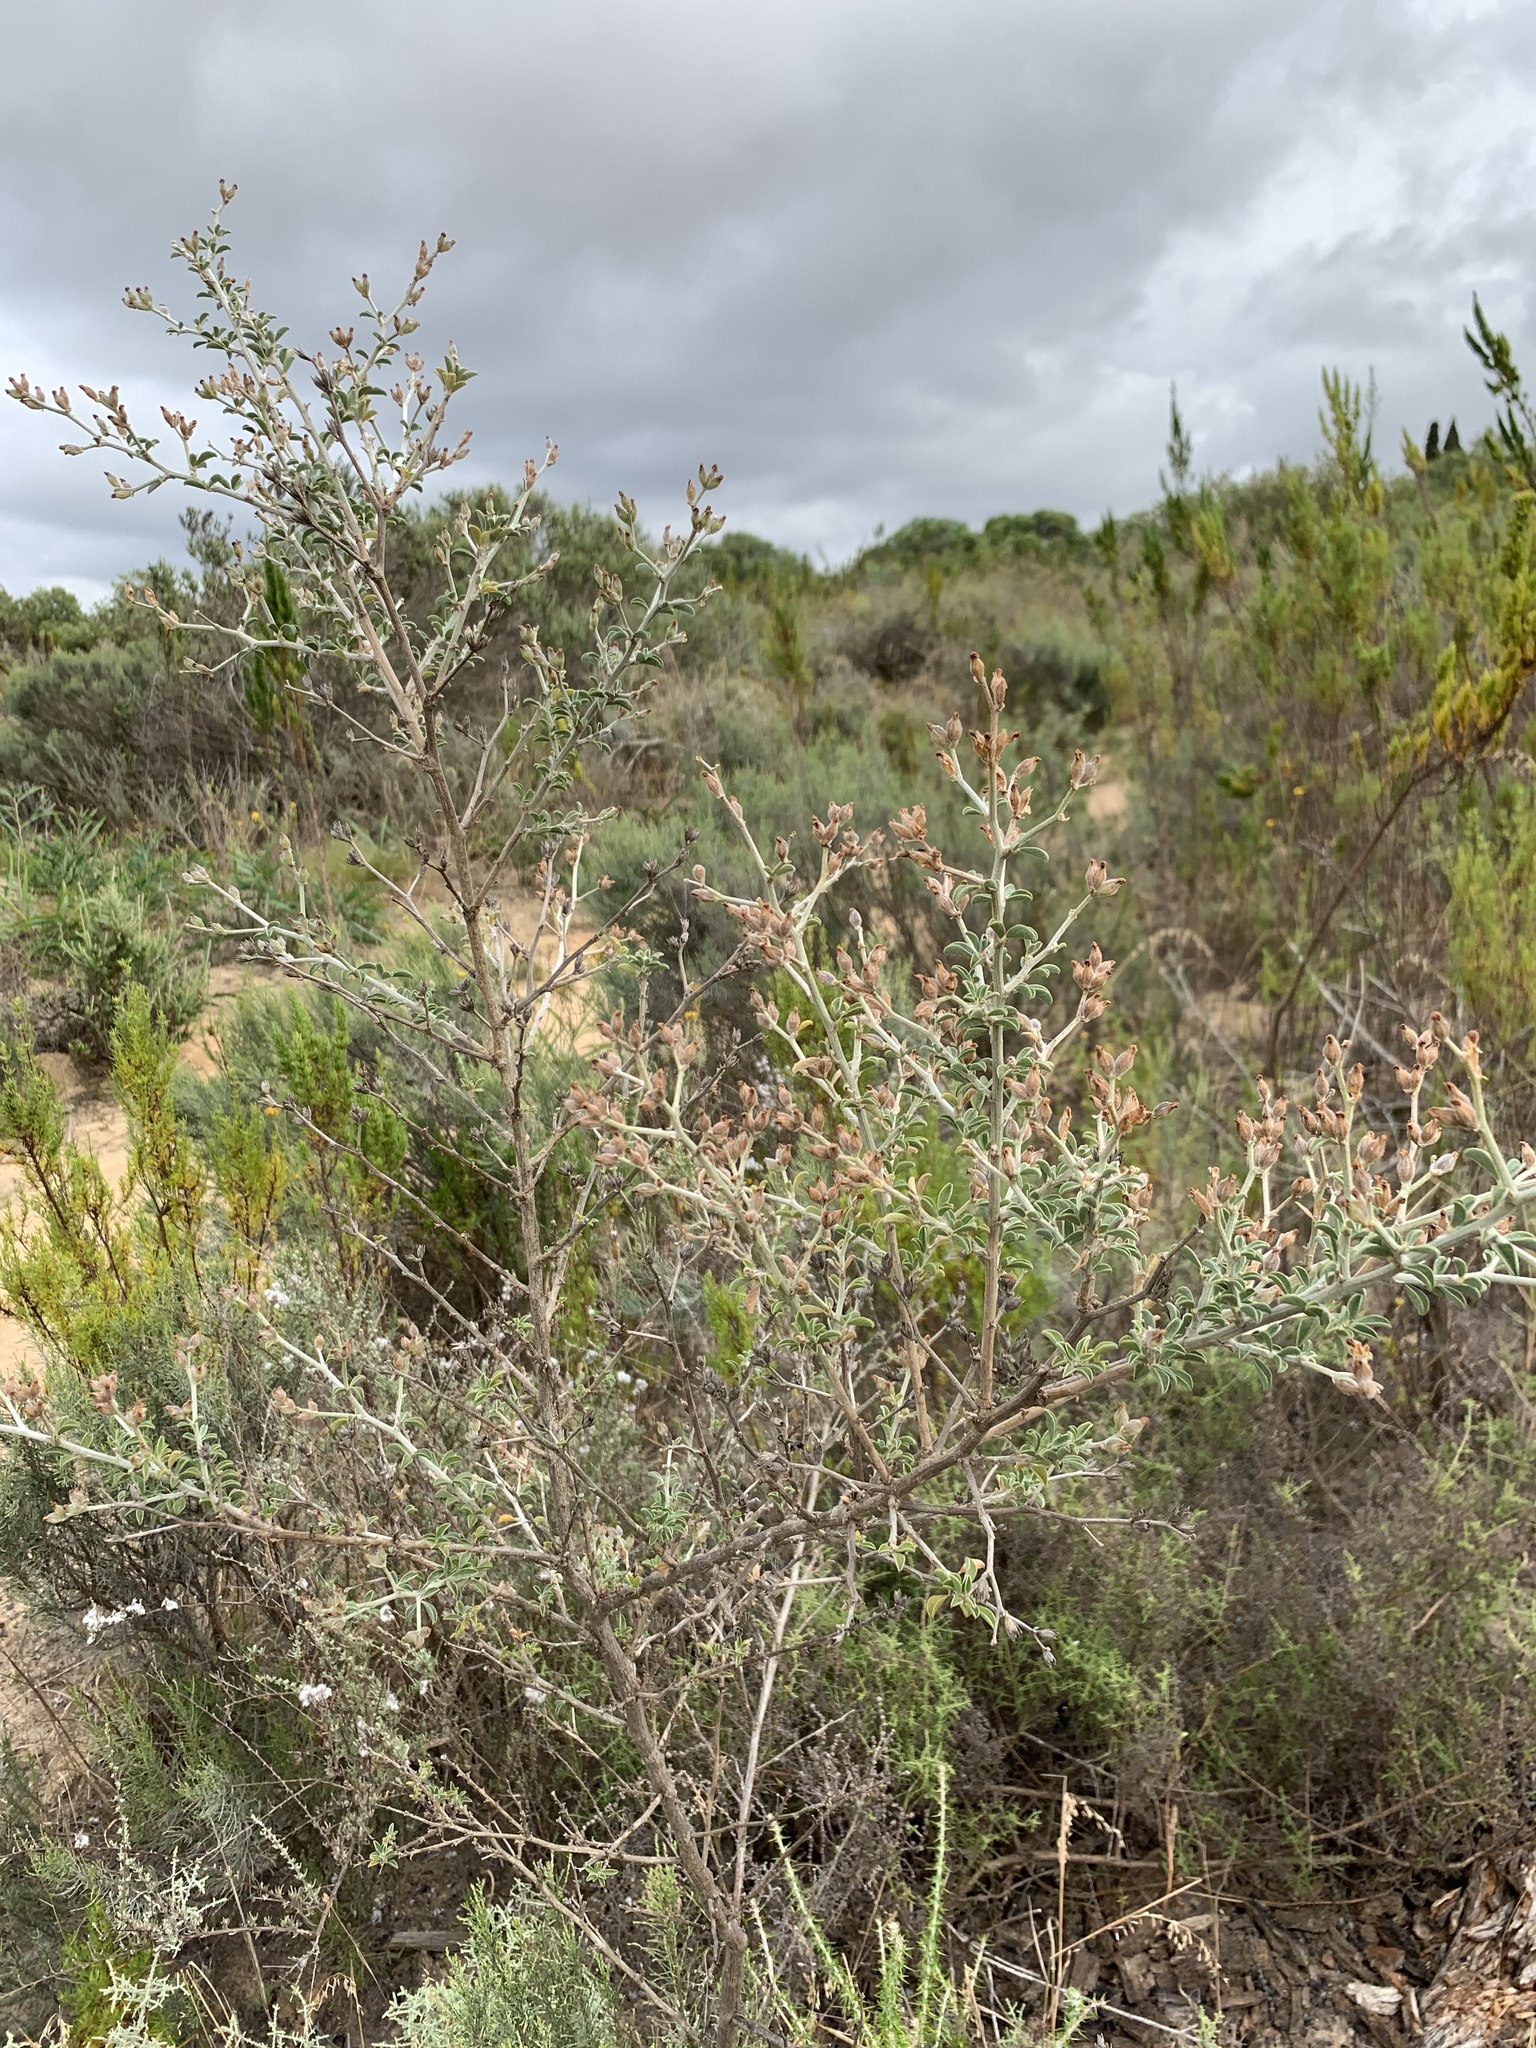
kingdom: Plantae
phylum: Tracheophyta
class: Magnoliopsida
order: Fabales
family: Fabaceae
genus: Psoralea
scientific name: Psoralea hirta
